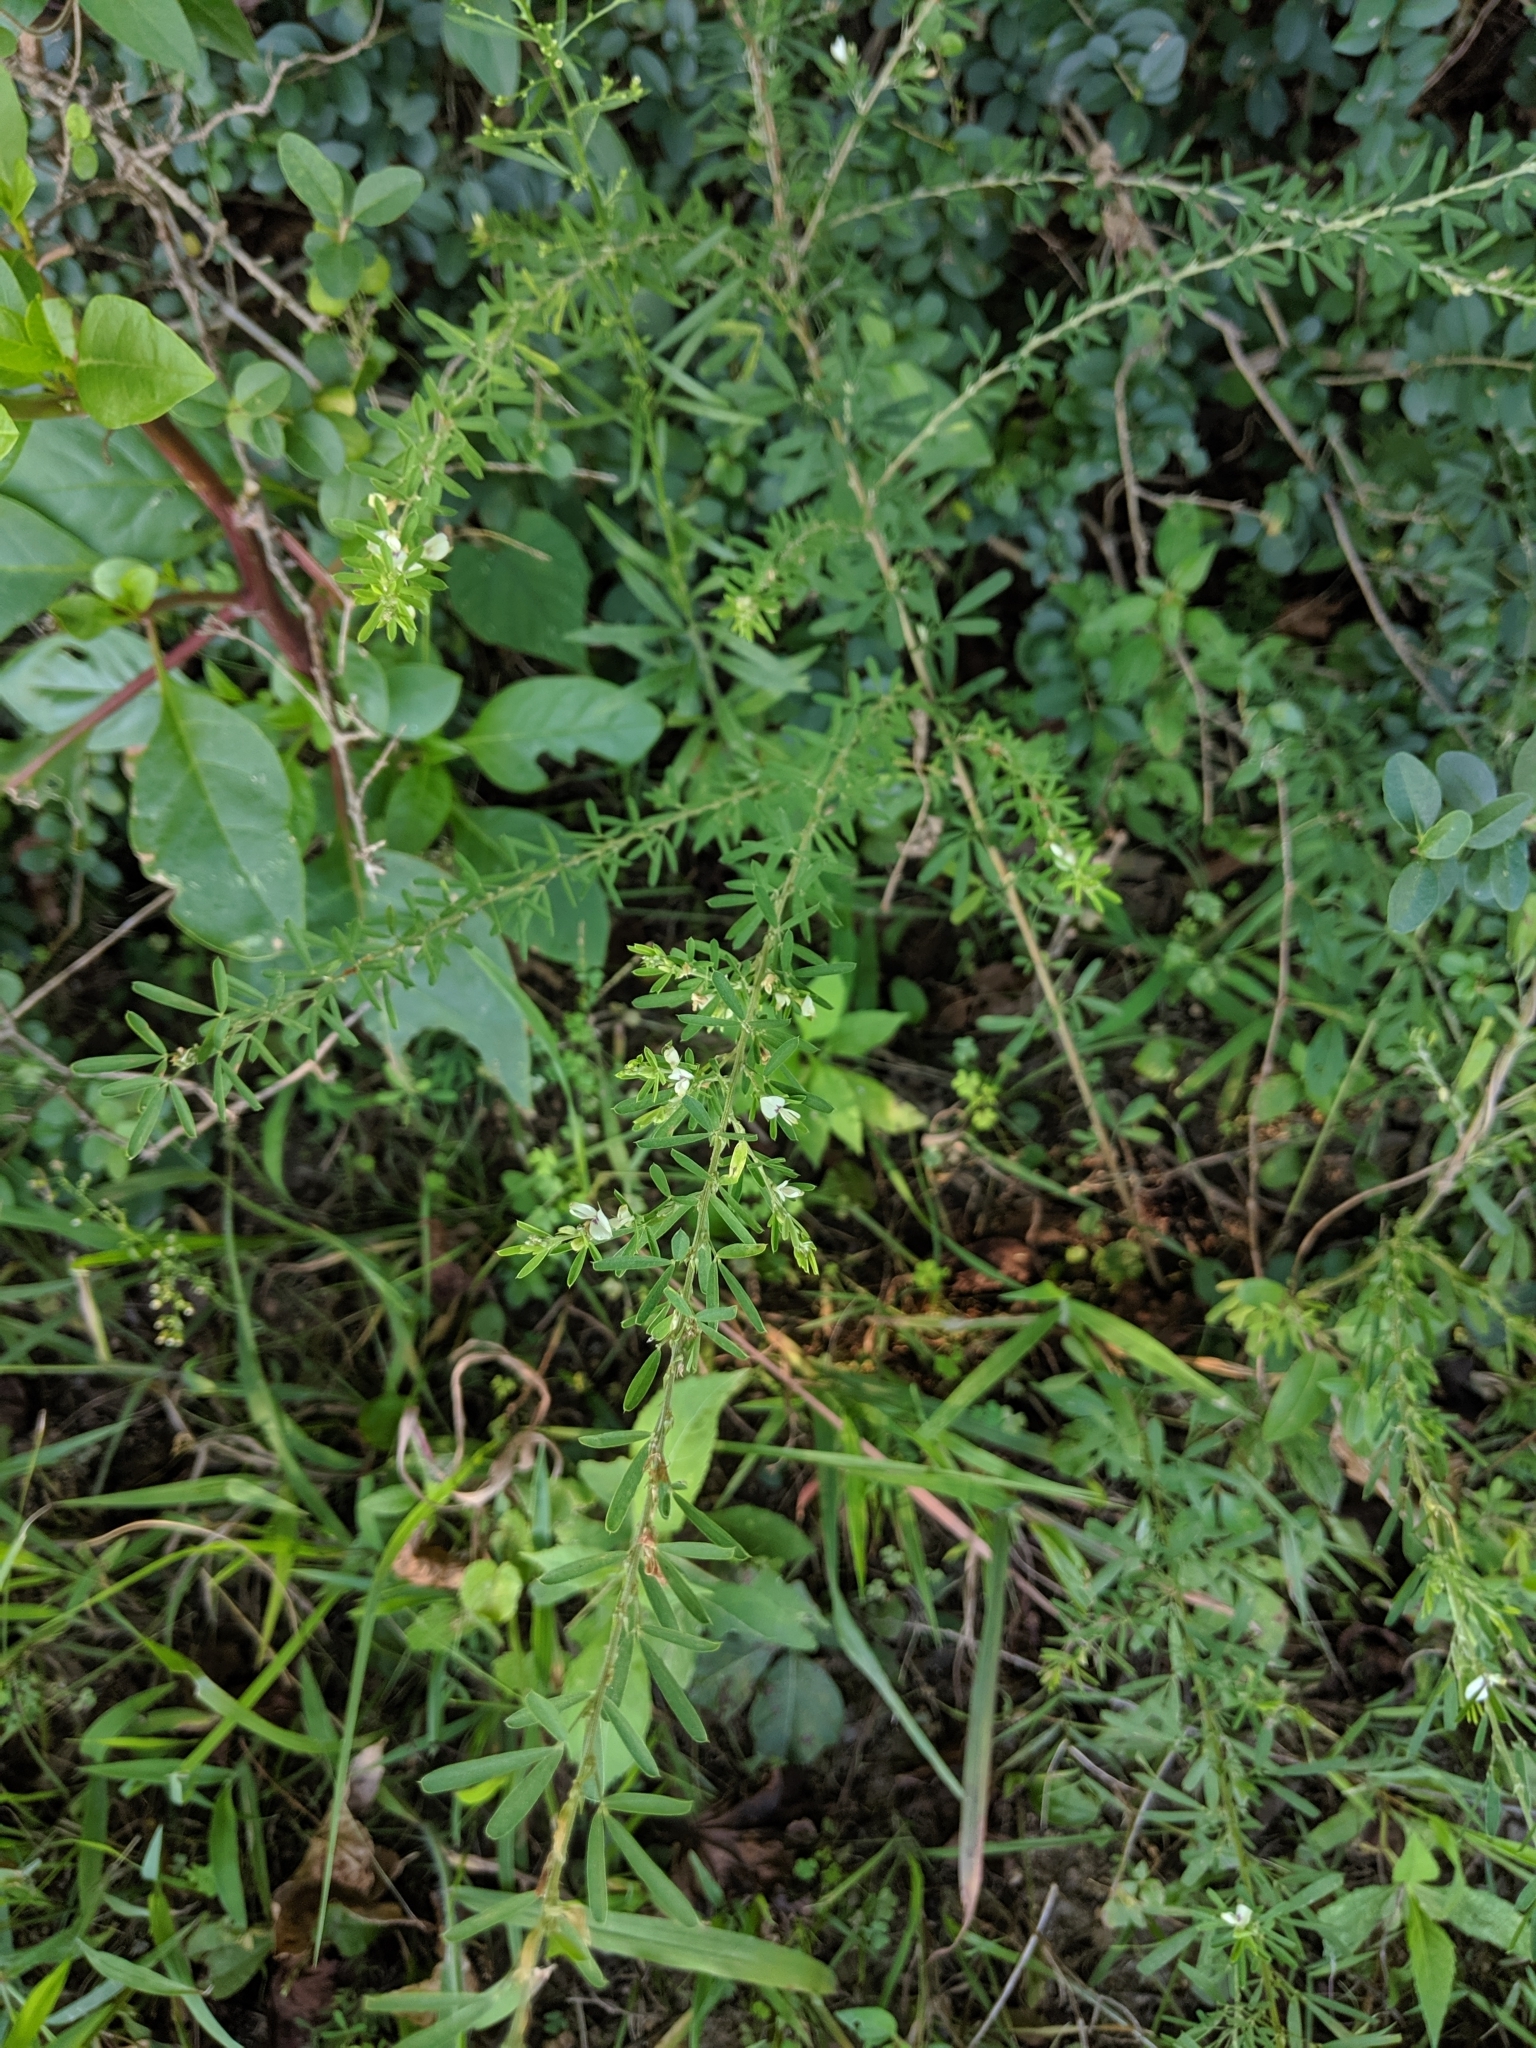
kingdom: Plantae
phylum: Tracheophyta
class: Magnoliopsida
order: Fabales
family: Fabaceae
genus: Lespedeza
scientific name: Lespedeza cuneata
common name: Chinese bush-clover
